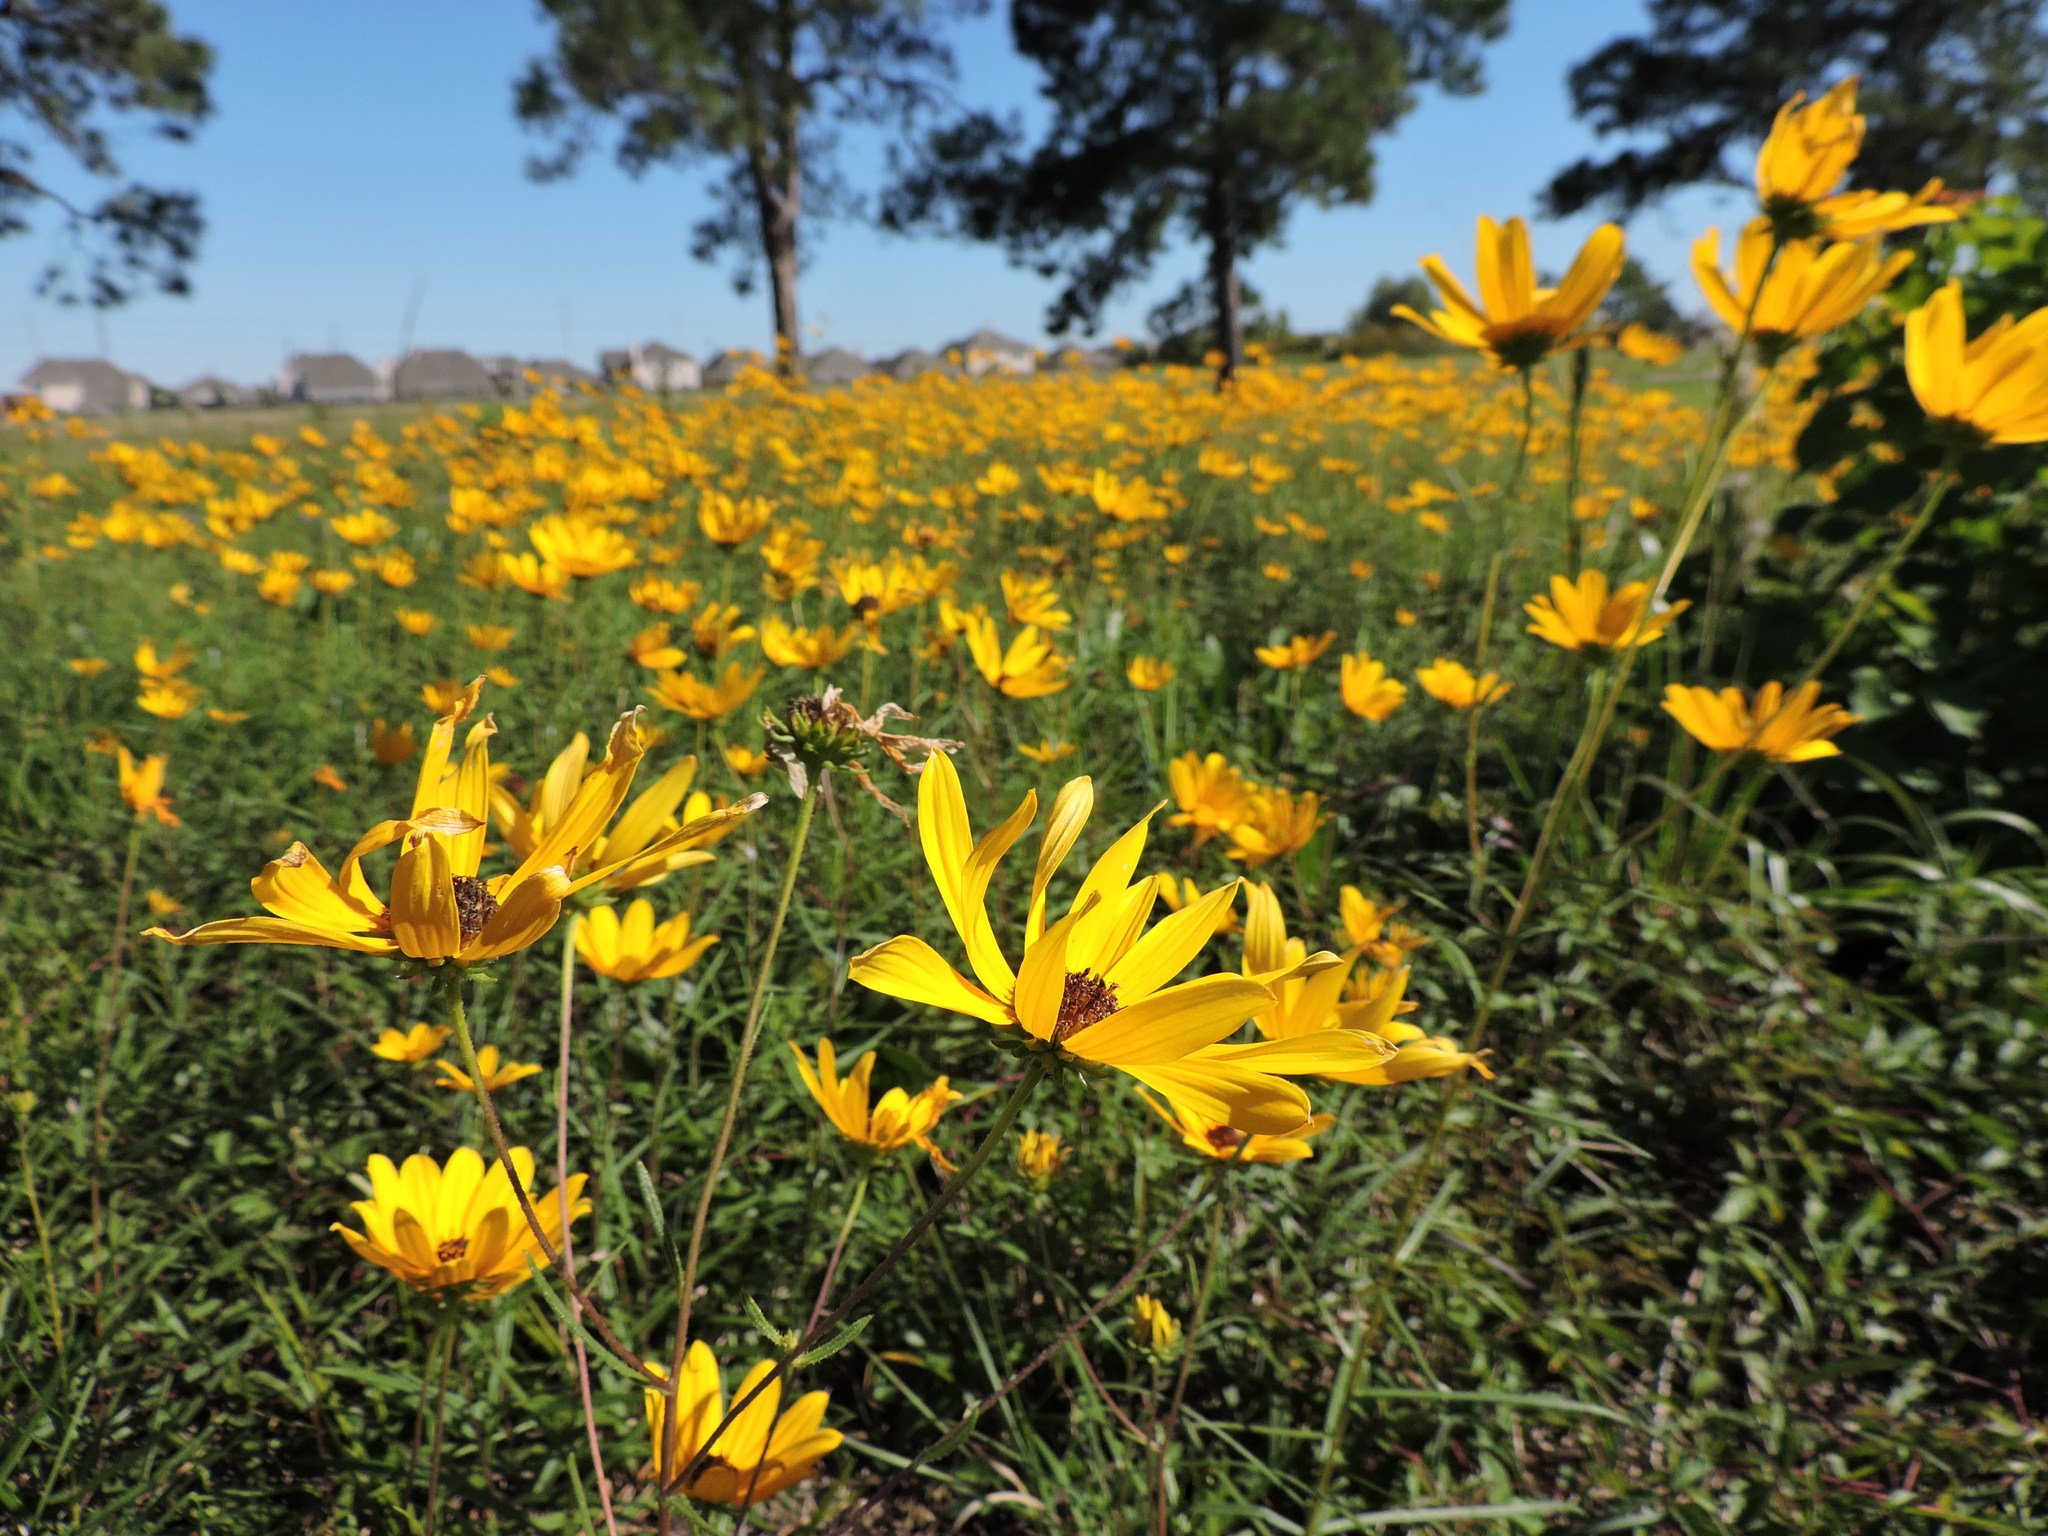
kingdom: Plantae
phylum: Tracheophyta
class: Magnoliopsida
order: Asterales
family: Asteraceae
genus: Helianthus
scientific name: Helianthus angustifolius
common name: Swamp sunflower
